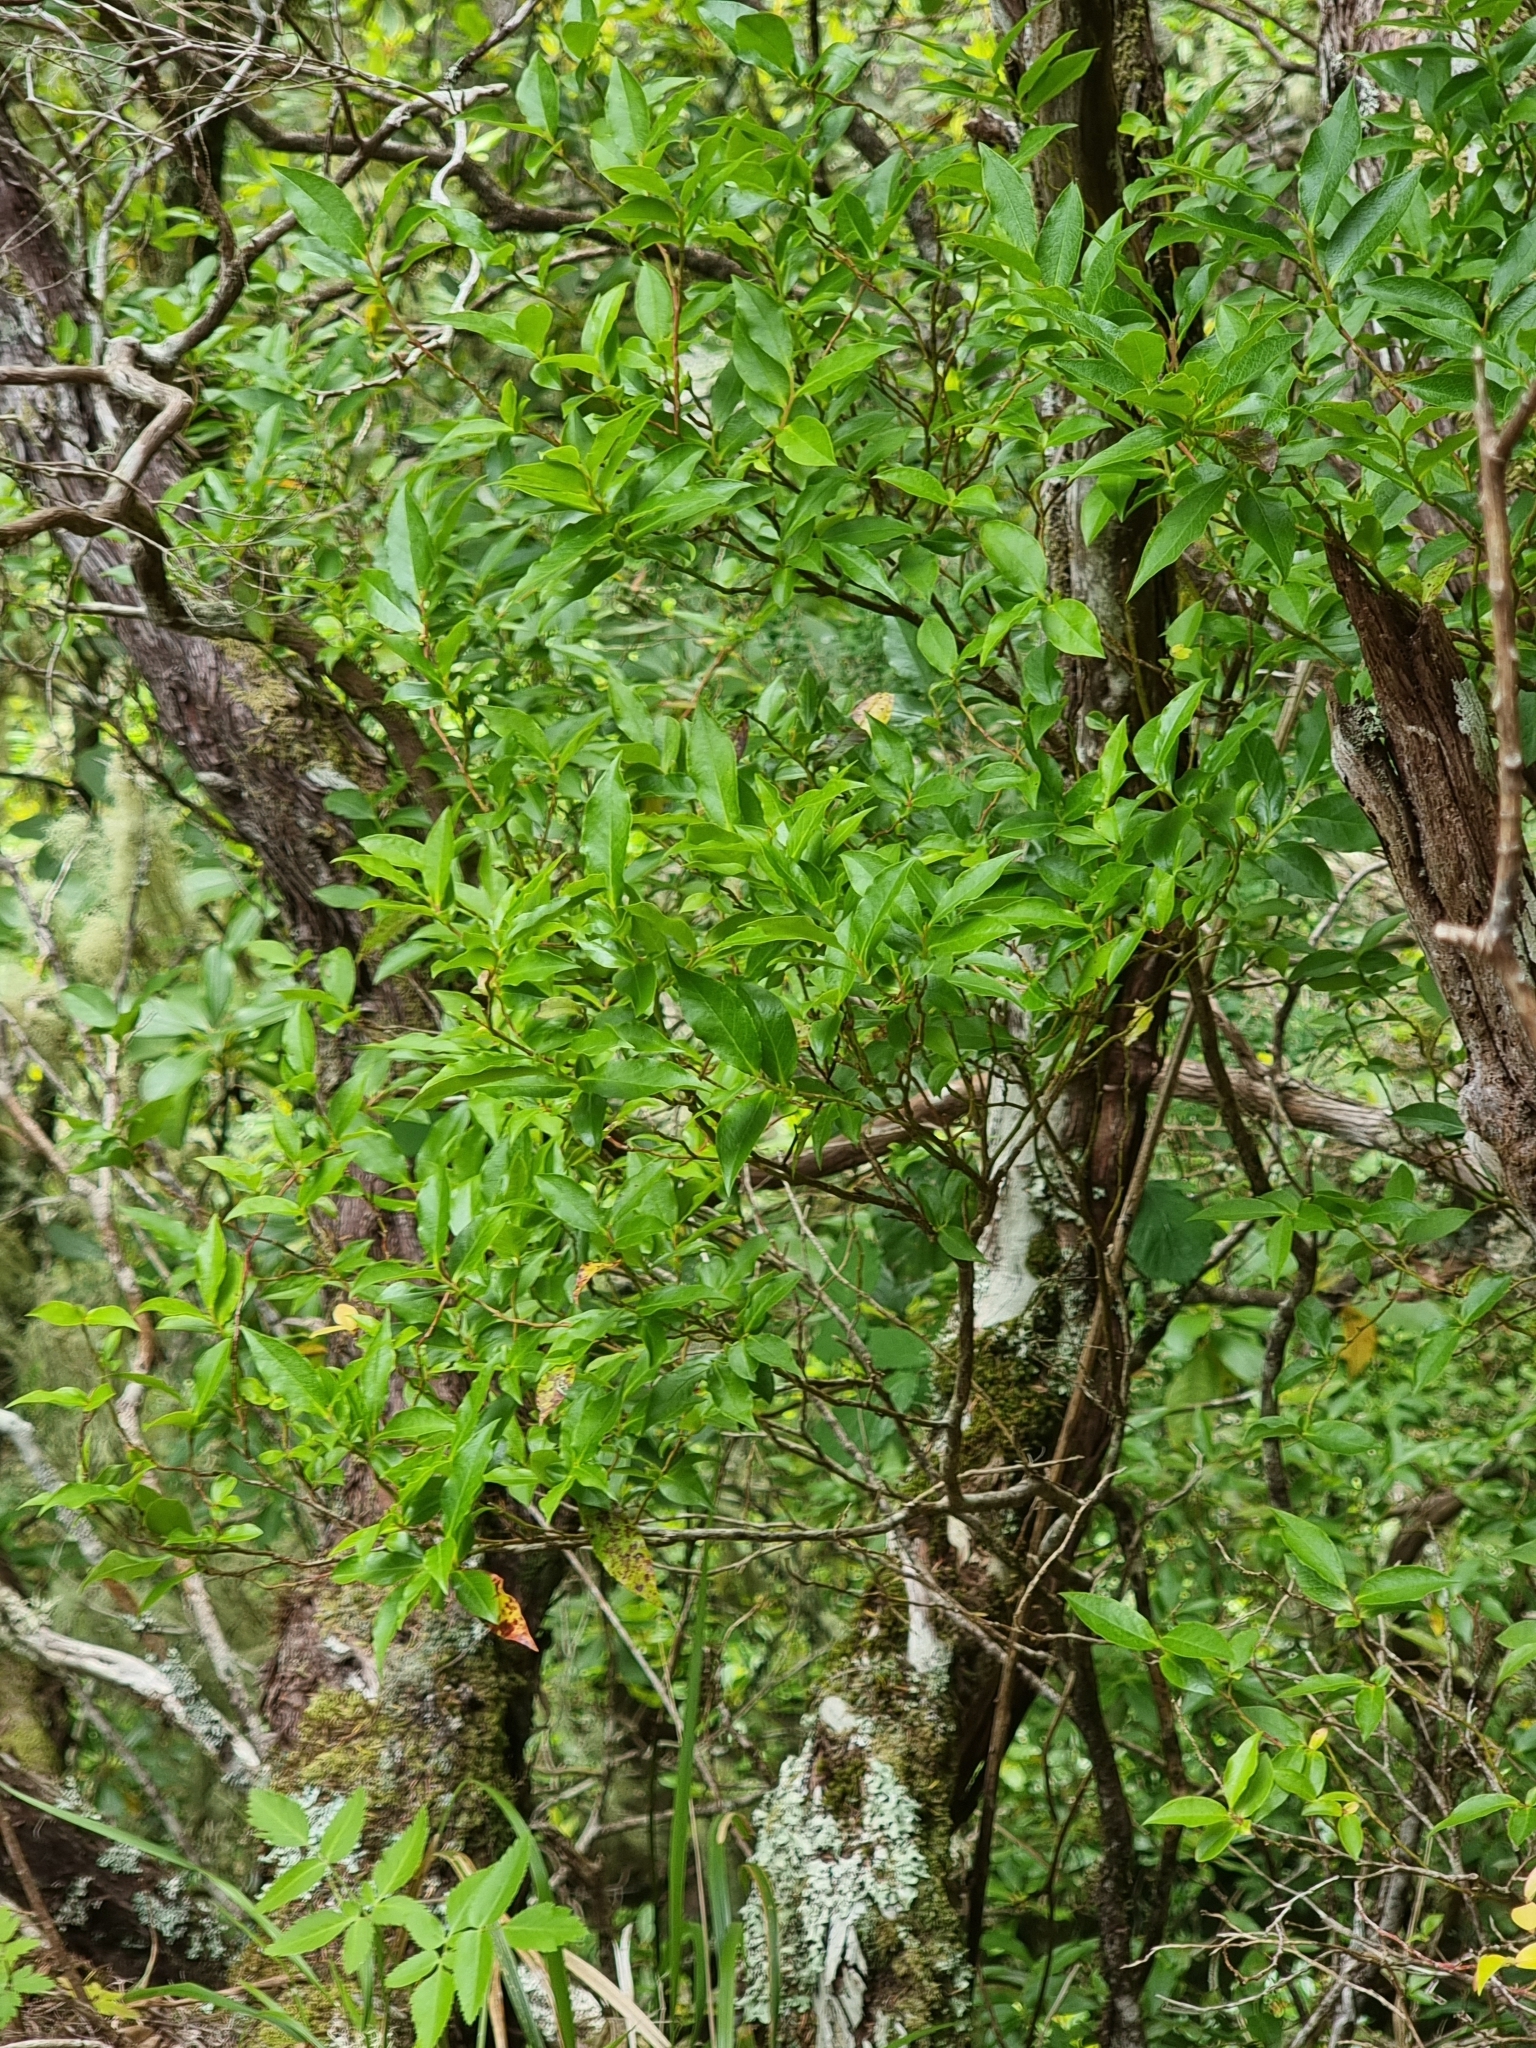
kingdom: Plantae
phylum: Tracheophyta
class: Magnoliopsida
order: Ericales
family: Ericaceae
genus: Vaccinium
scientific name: Vaccinium padifolium
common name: Madeiran blueberry
